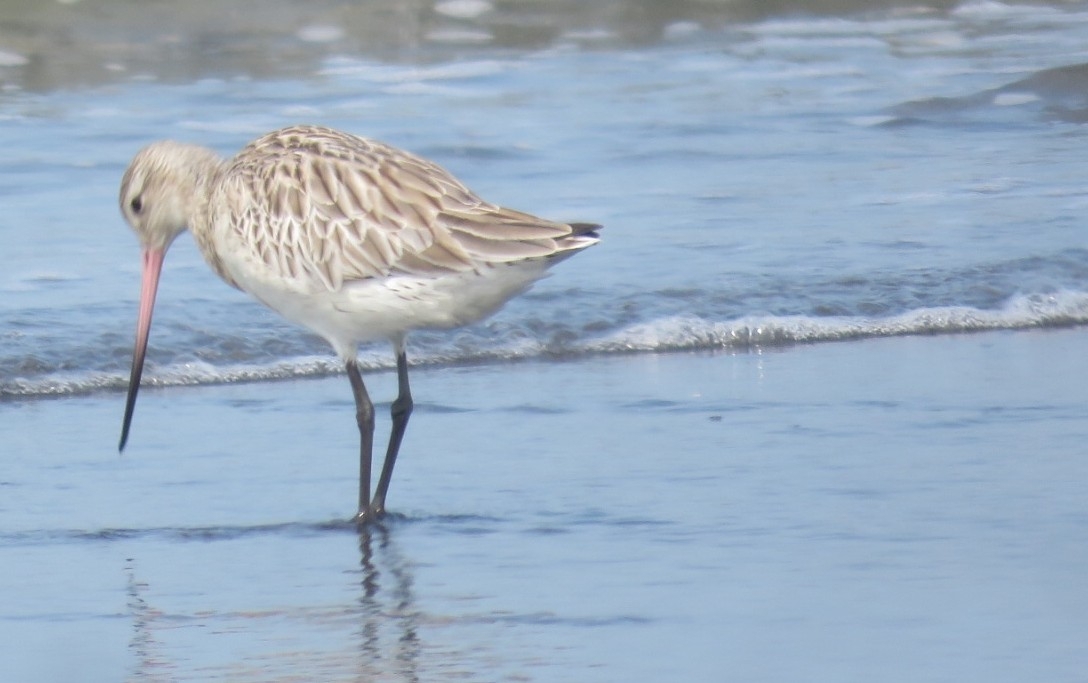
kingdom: Animalia
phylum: Chordata
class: Aves
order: Charadriiformes
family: Scolopacidae
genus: Limosa
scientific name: Limosa lapponica
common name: Bar-tailed godwit
